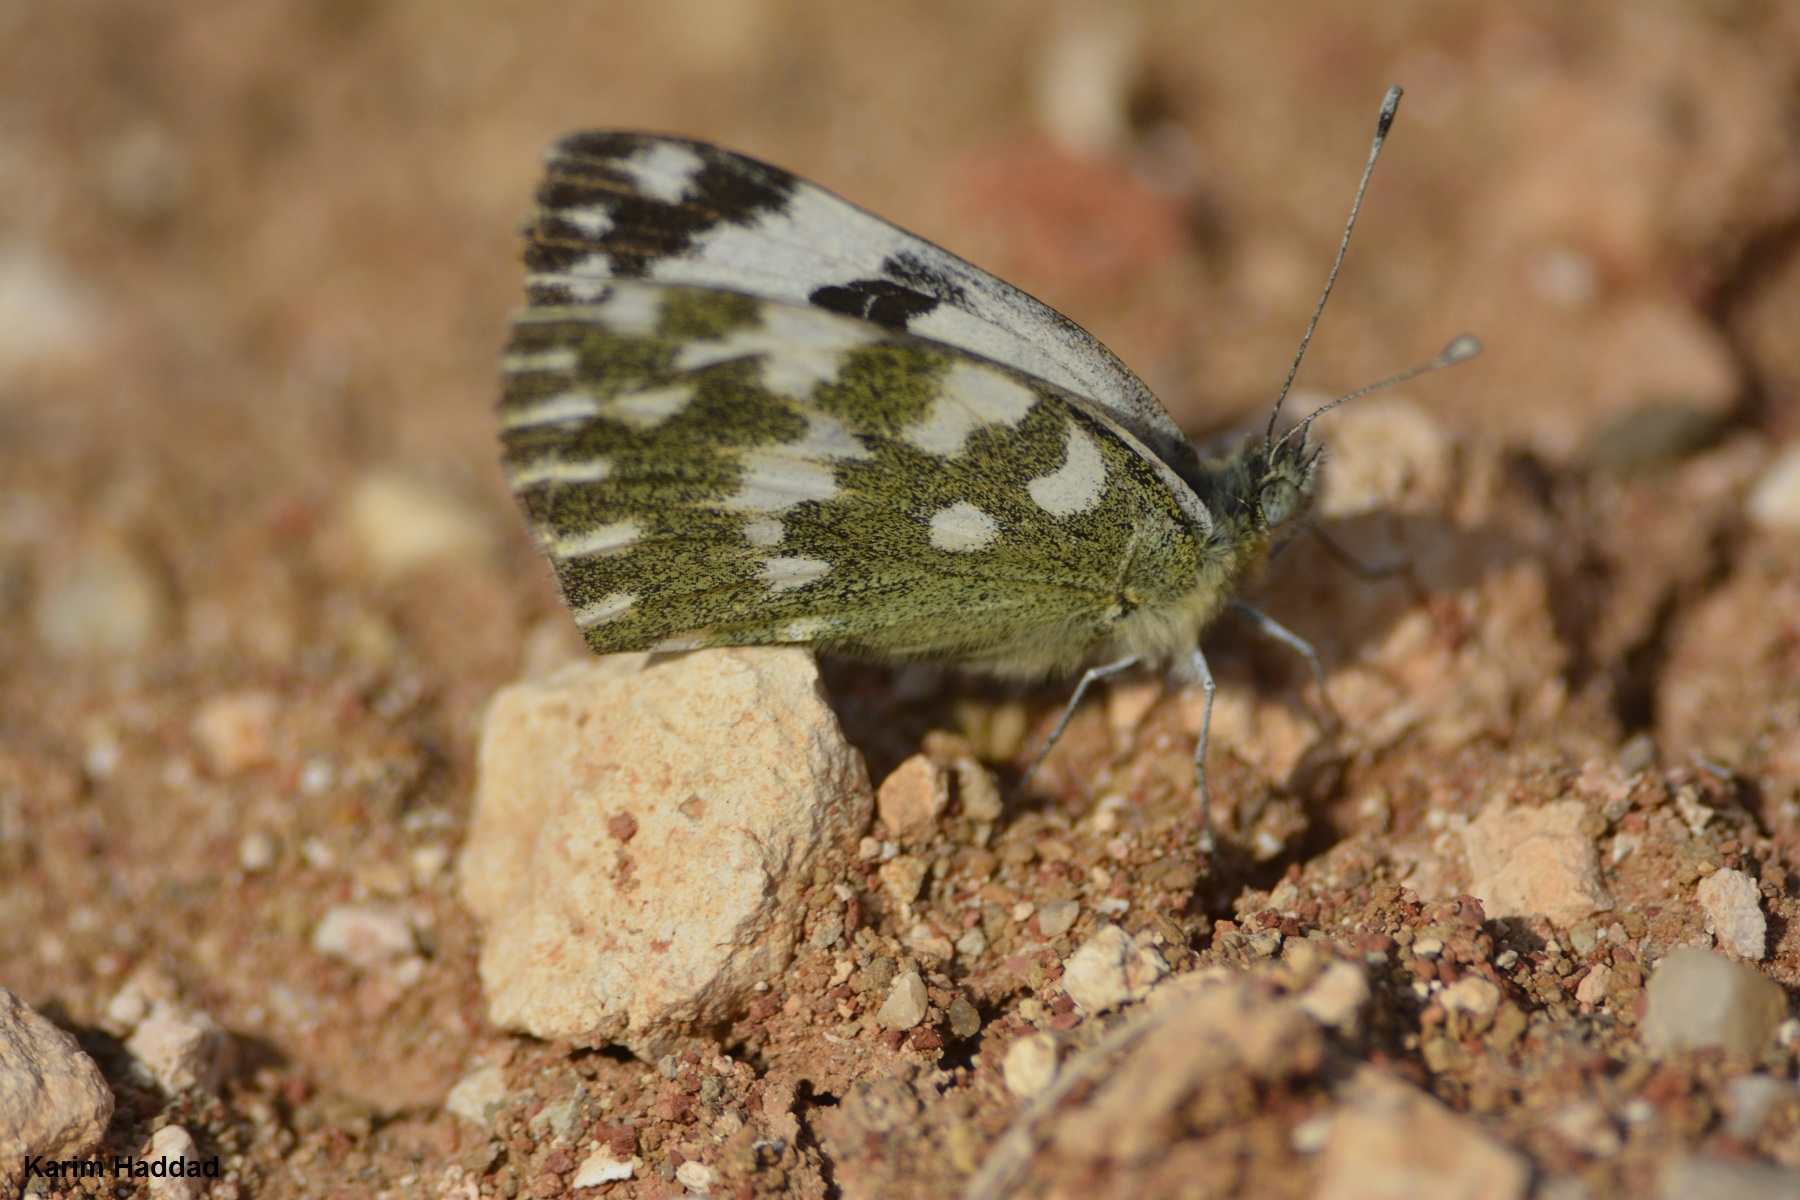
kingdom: Animalia
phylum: Arthropoda
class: Insecta
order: Lepidoptera
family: Pieridae
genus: Pontia
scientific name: Pontia daplidice
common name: Bath white
